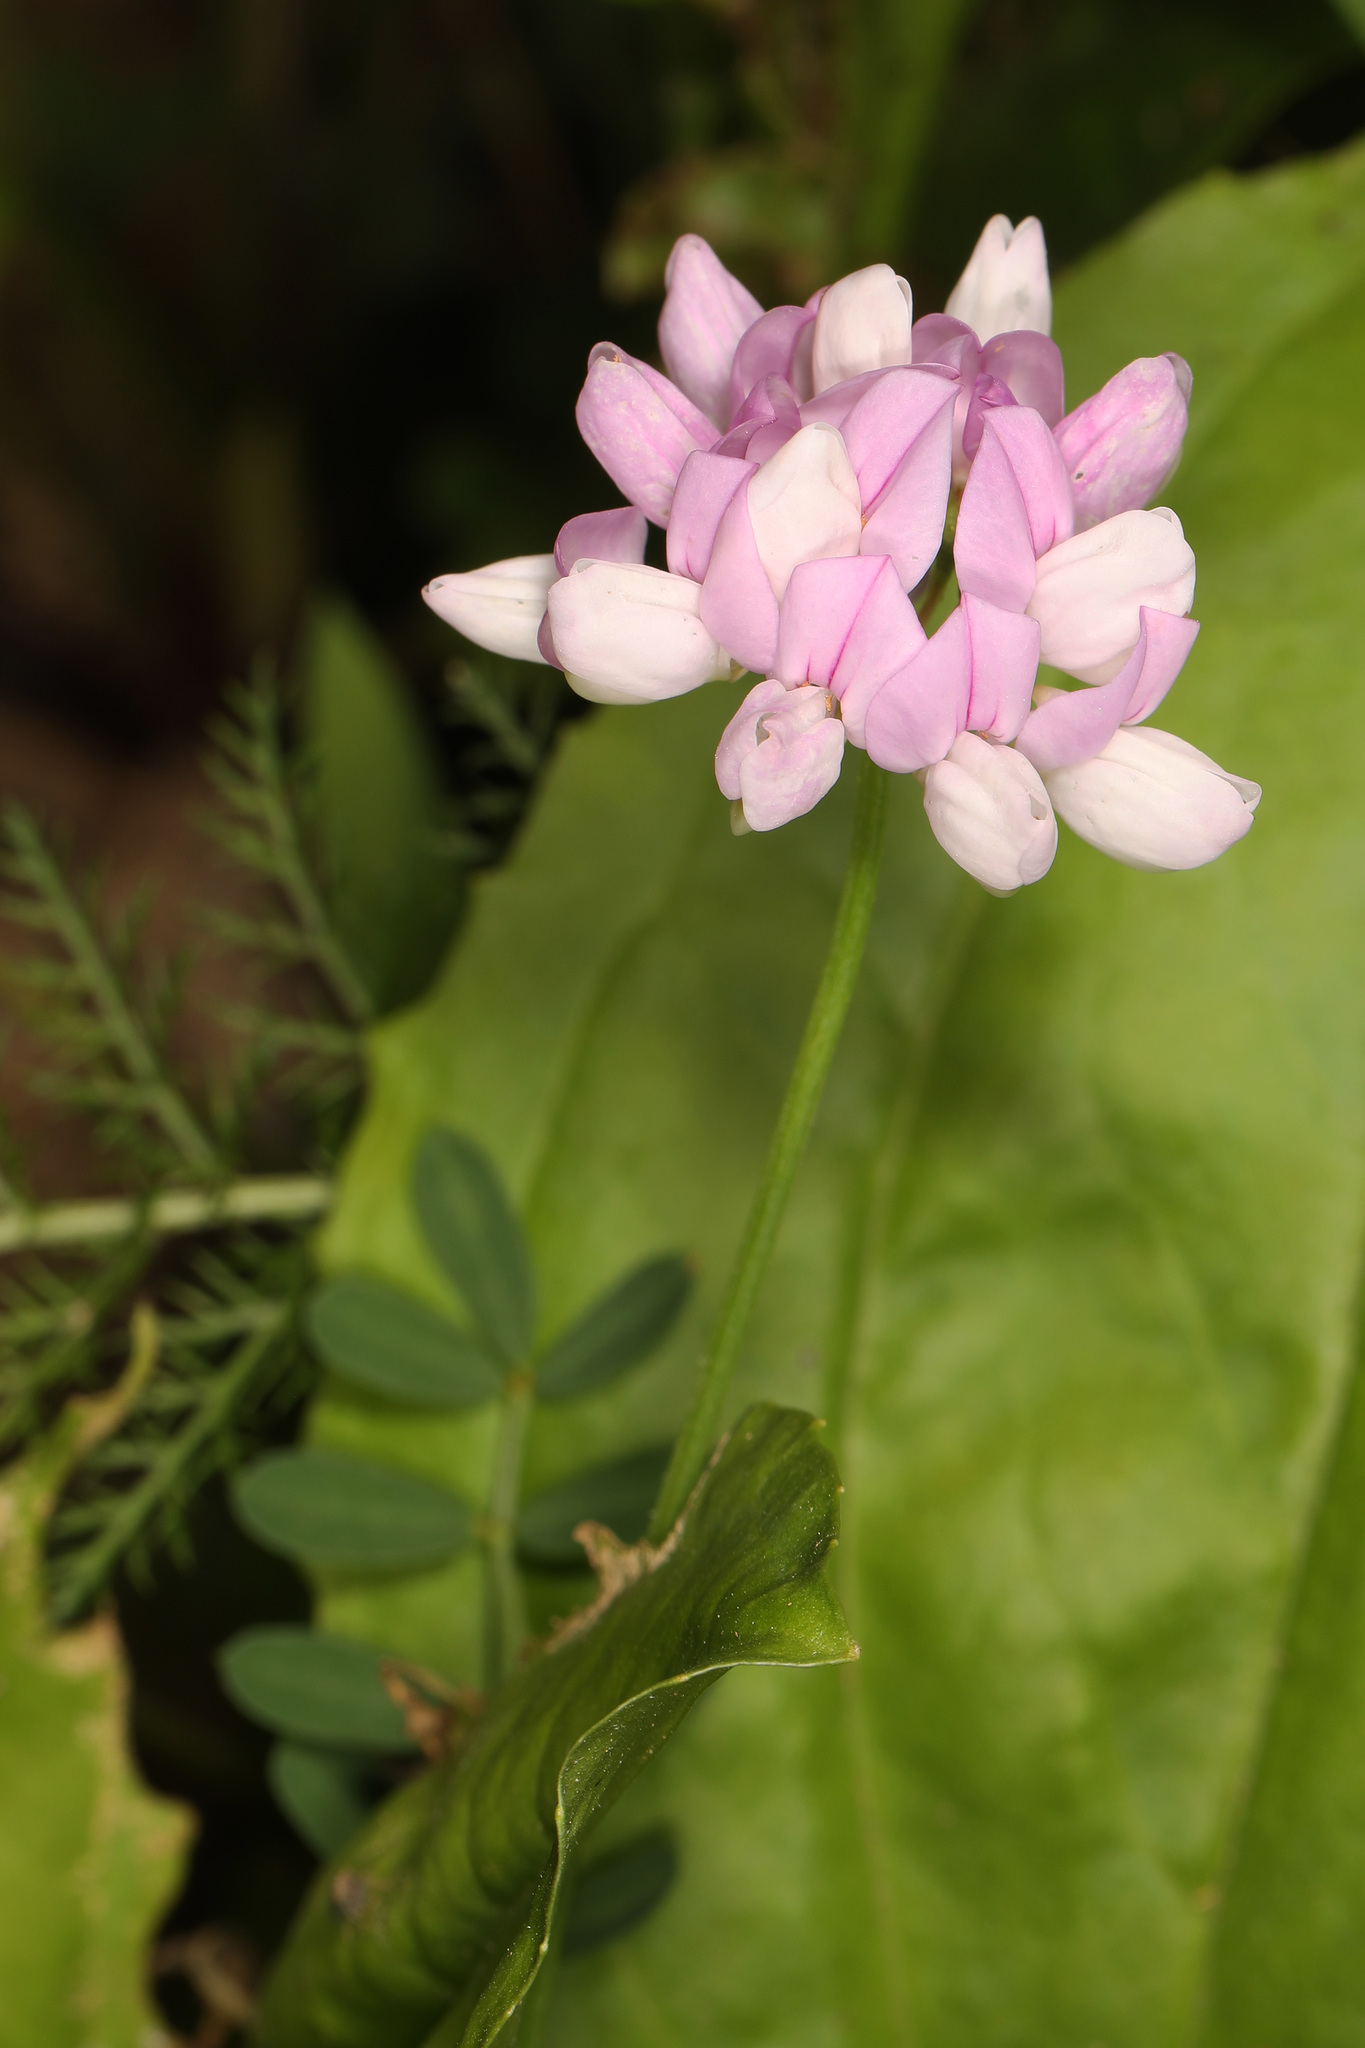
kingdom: Plantae
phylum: Tracheophyta
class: Magnoliopsida
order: Fabales
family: Fabaceae
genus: Coronilla
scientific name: Coronilla varia
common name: Crownvetch
